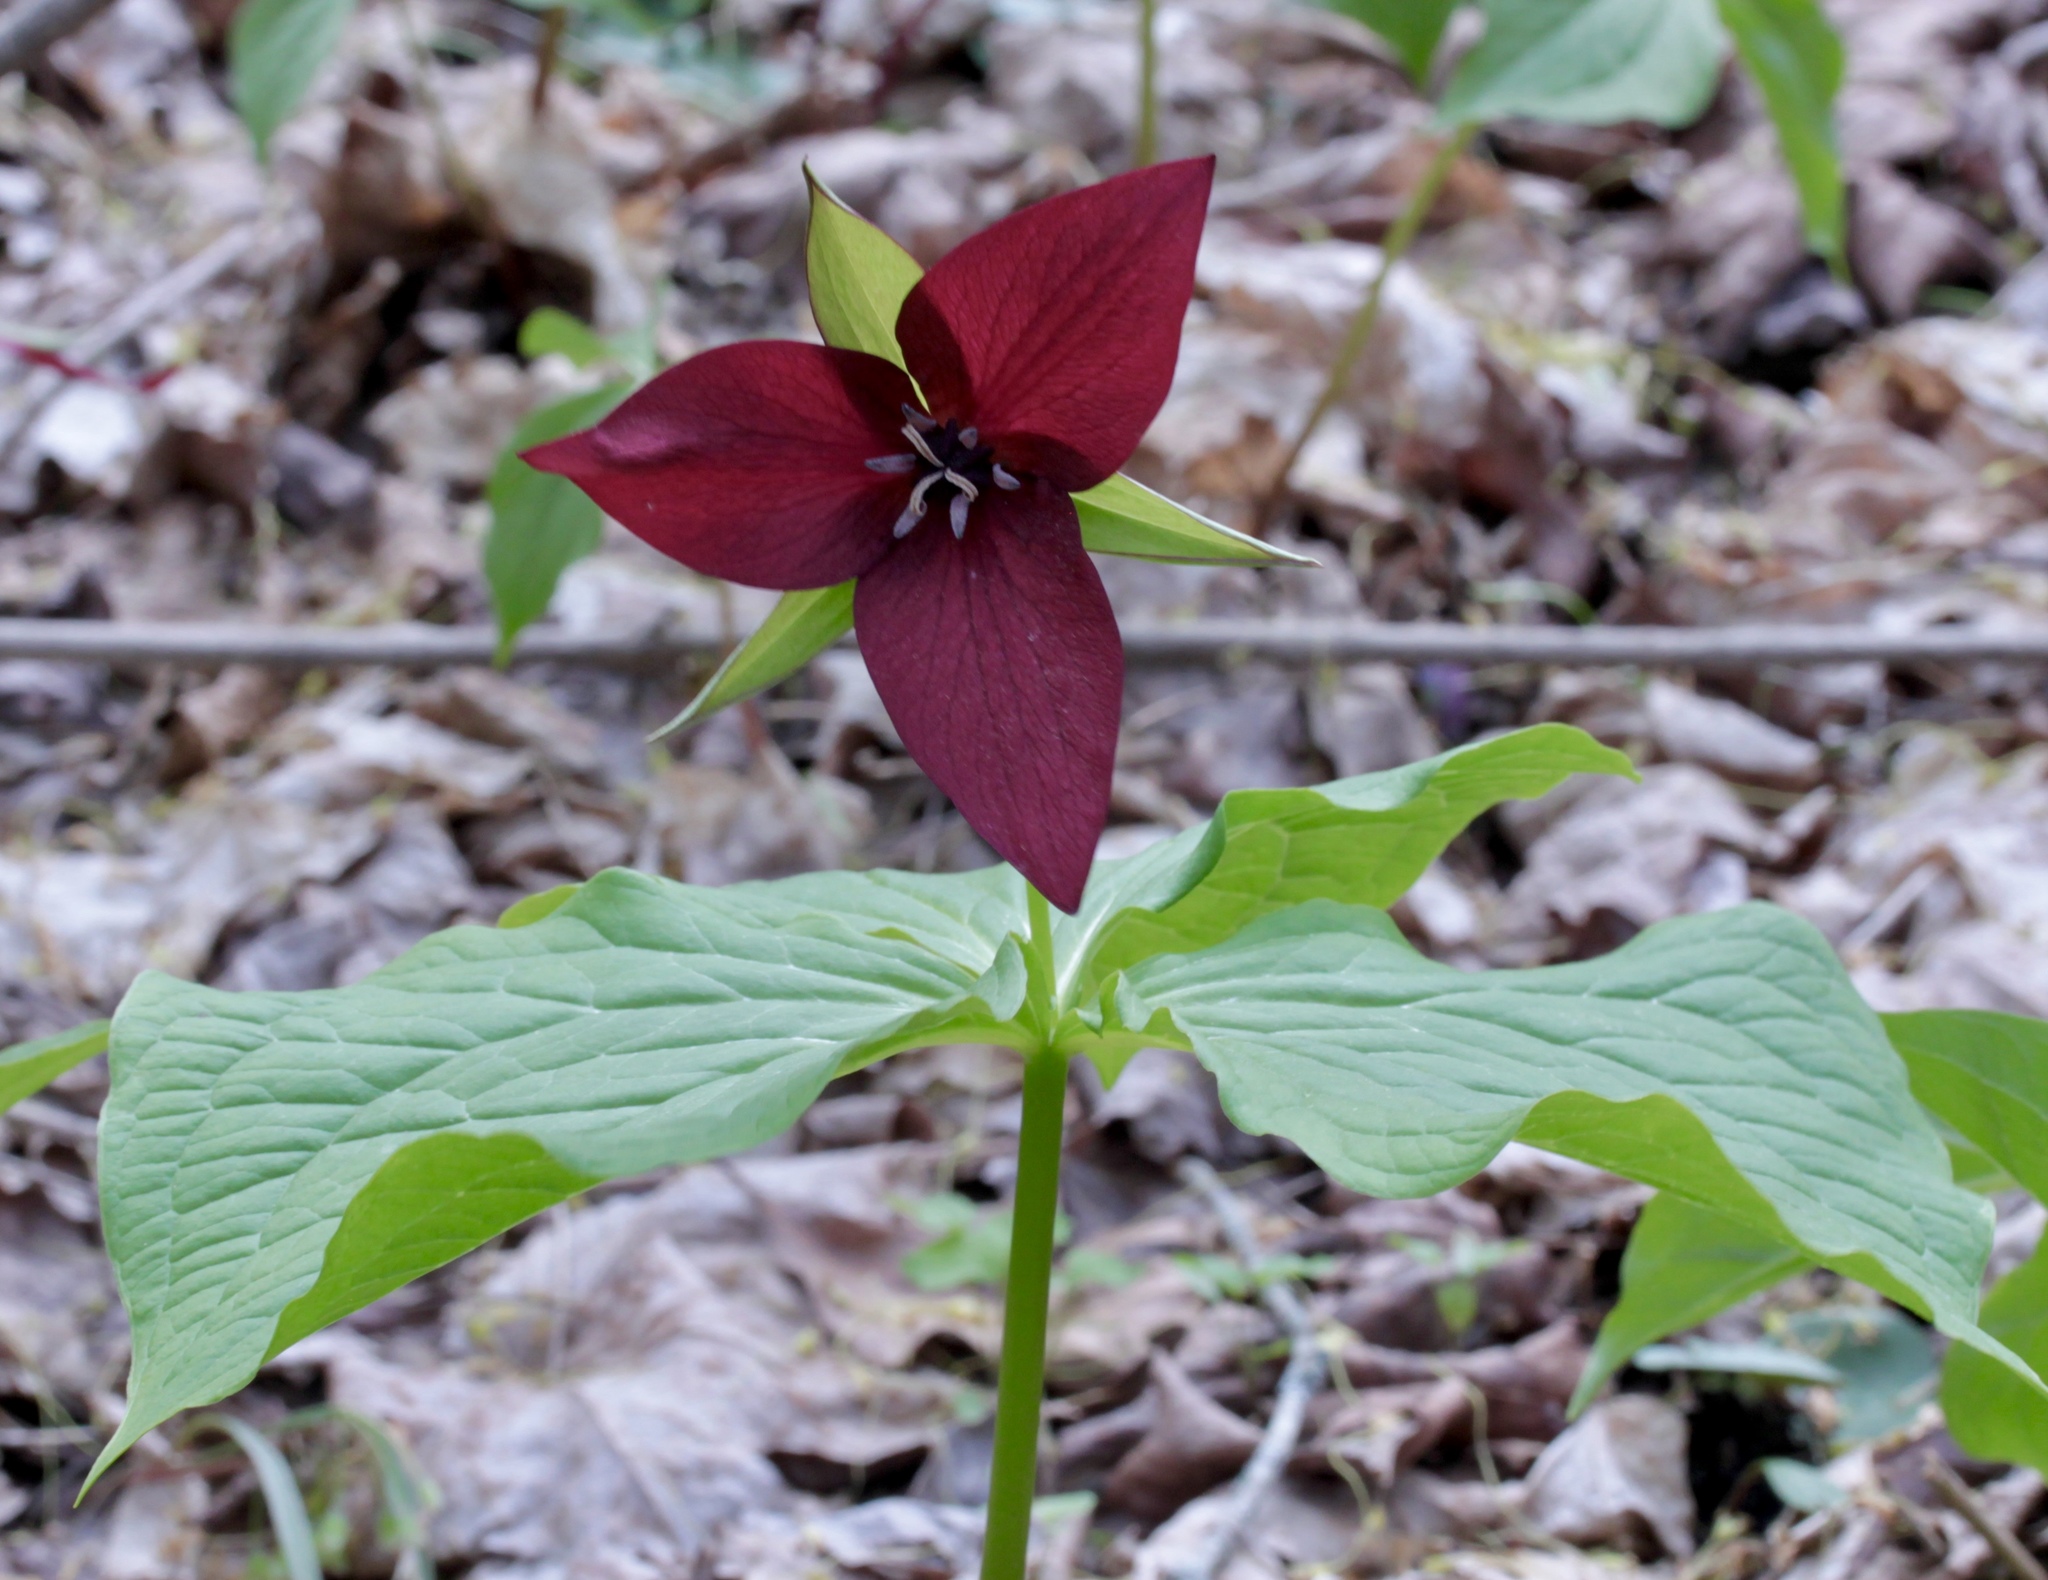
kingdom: Plantae
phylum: Tracheophyta
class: Liliopsida
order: Liliales
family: Melanthiaceae
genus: Trillium
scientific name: Trillium erectum
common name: Purple trillium
